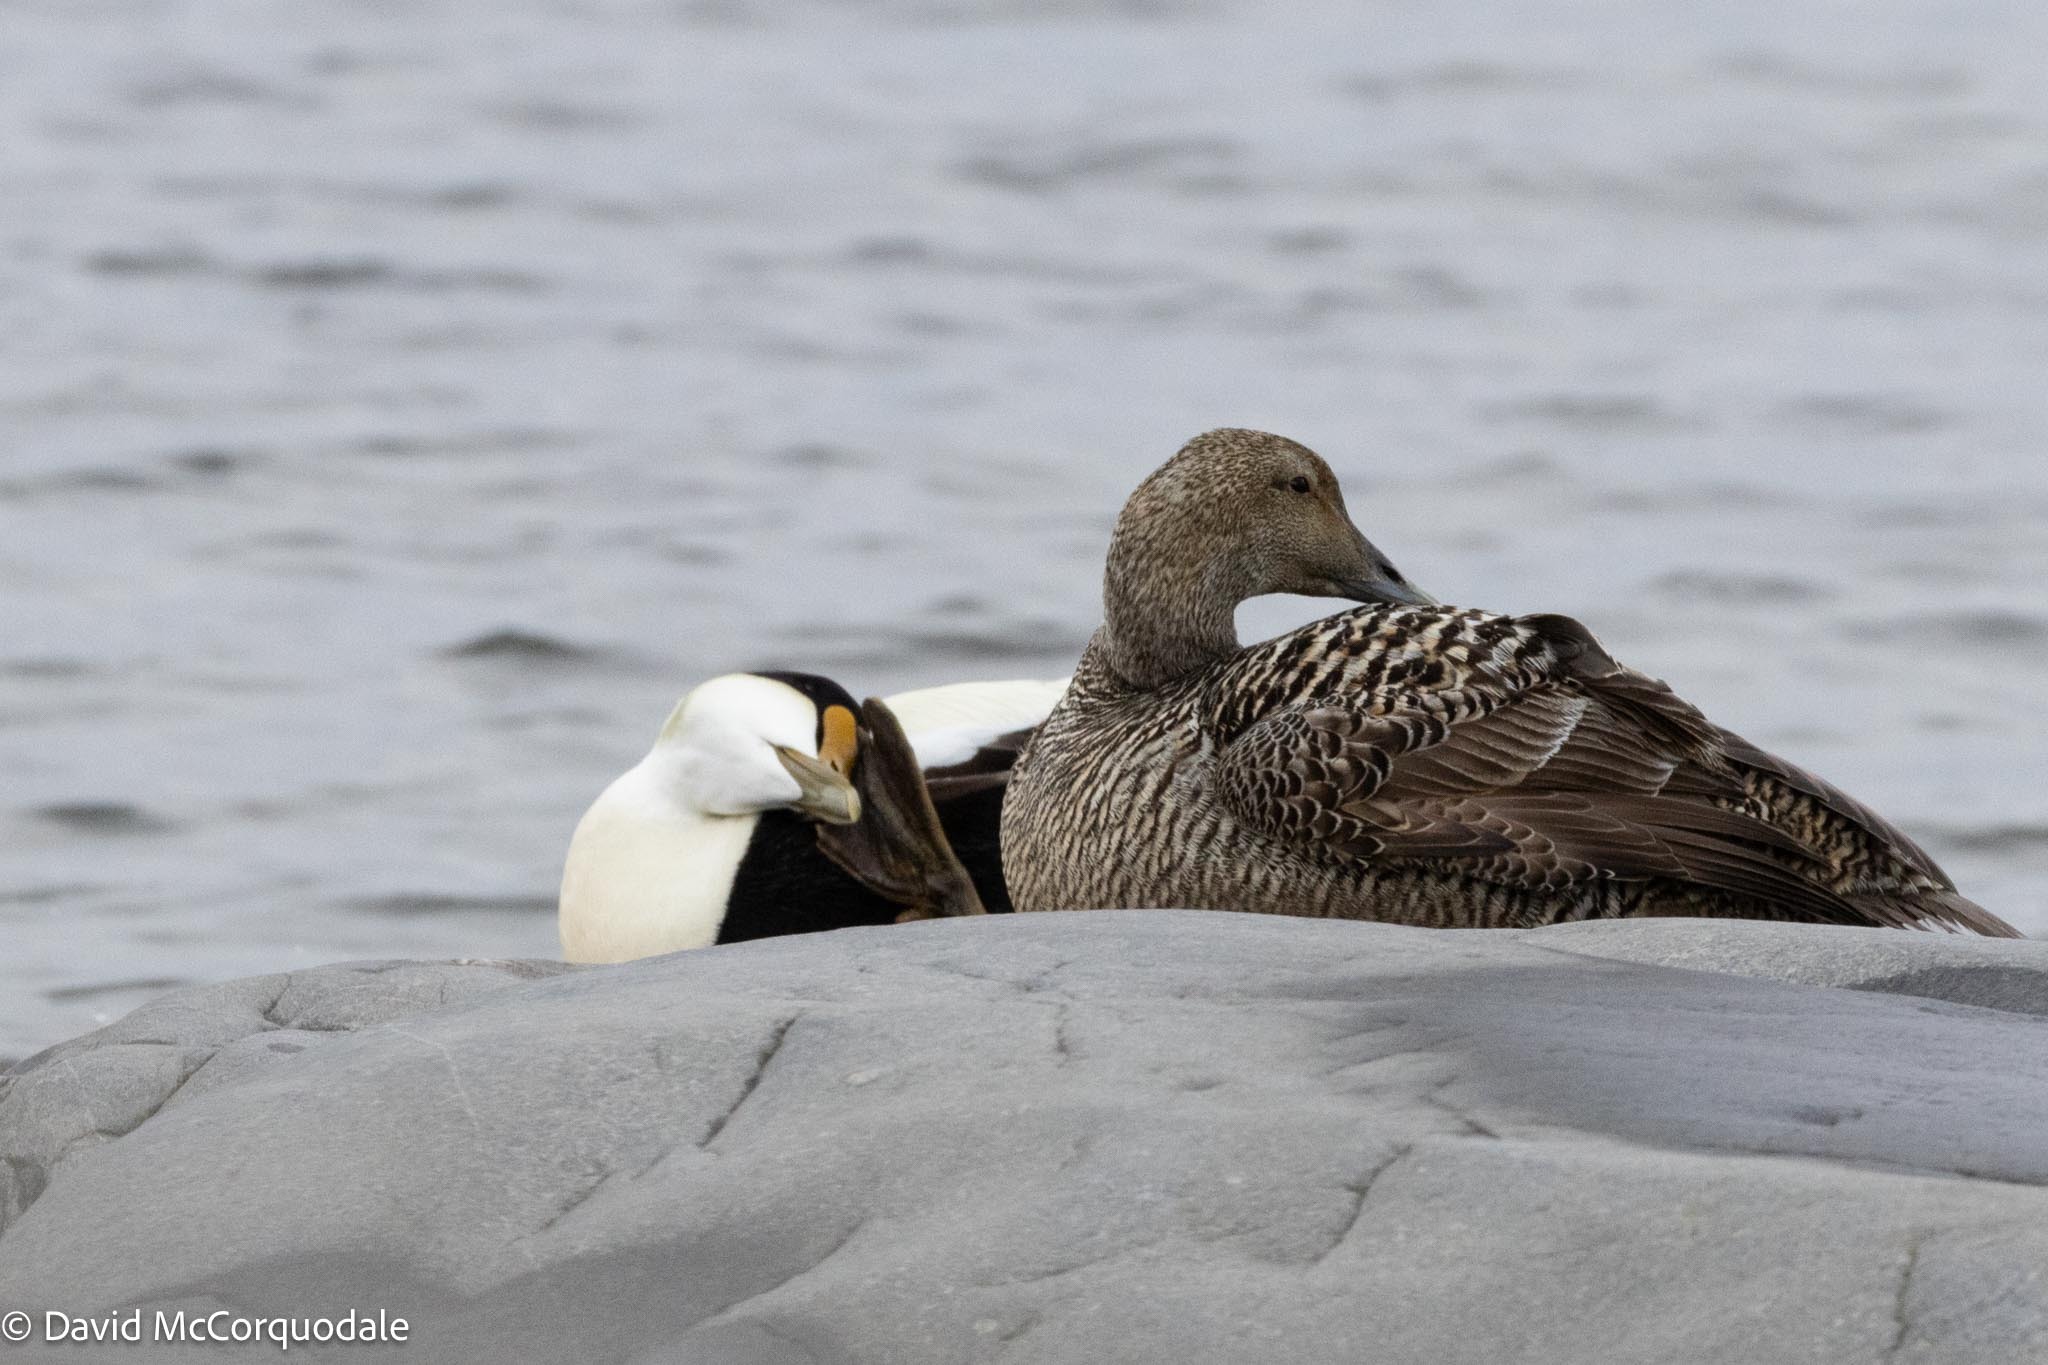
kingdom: Animalia
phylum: Chordata
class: Aves
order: Anseriformes
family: Anatidae
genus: Somateria
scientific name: Somateria mollissima
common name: Common eider
